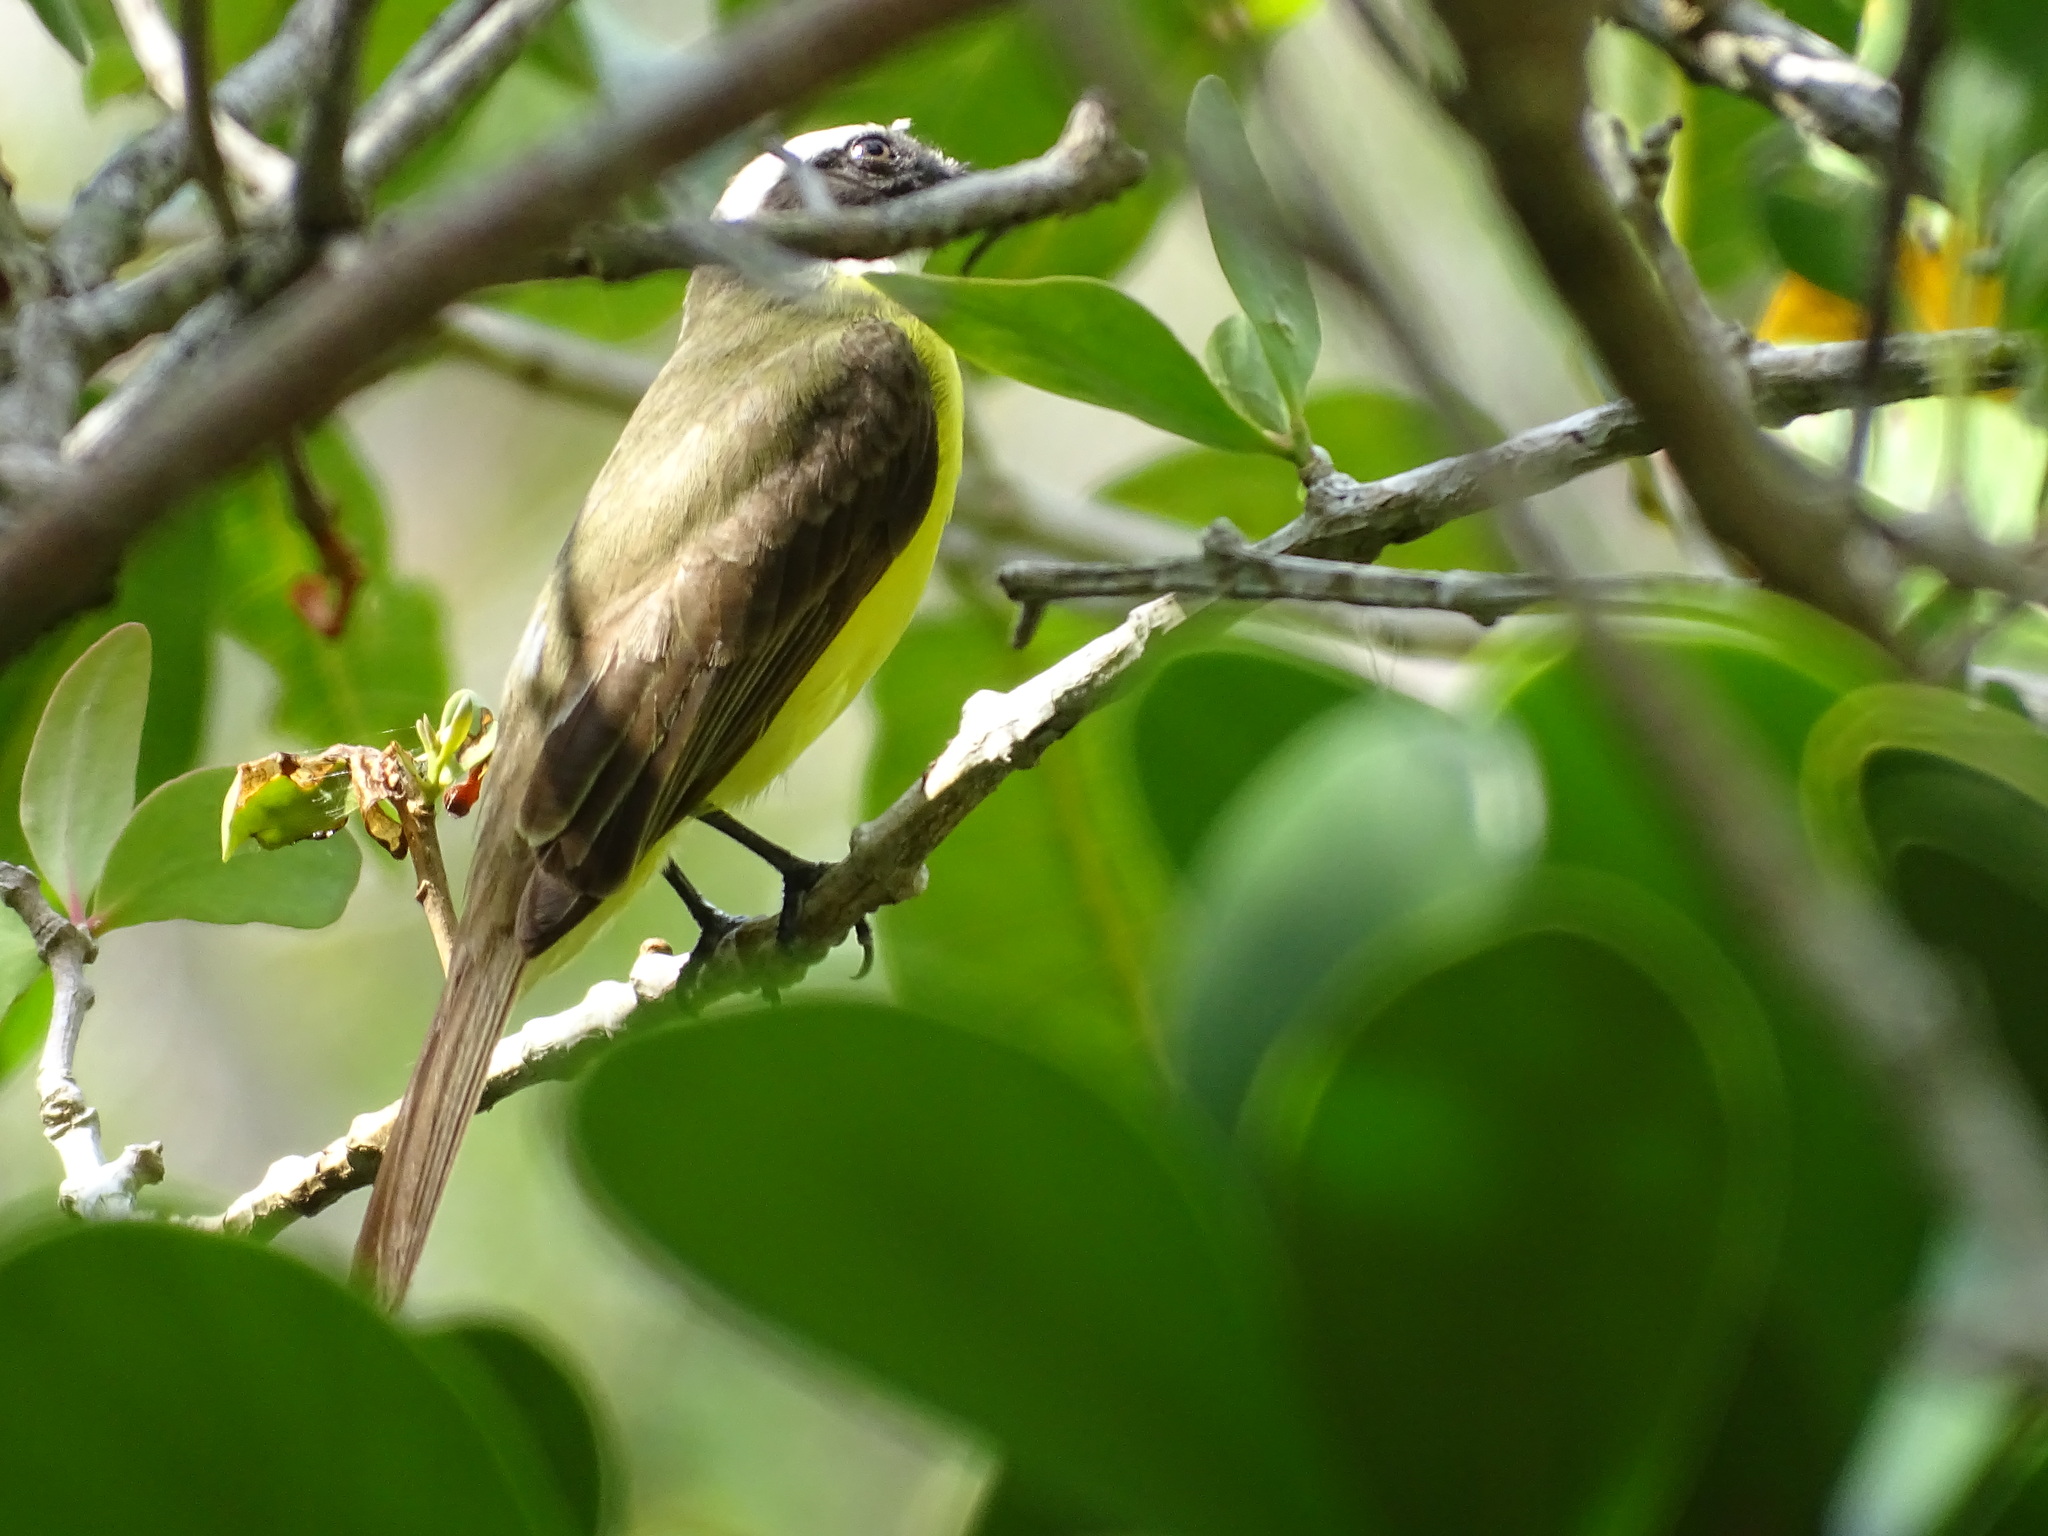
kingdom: Animalia
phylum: Chordata
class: Aves
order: Passeriformes
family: Tyrannidae
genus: Myiozetetes
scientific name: Myiozetetes similis
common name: Social flycatcher
